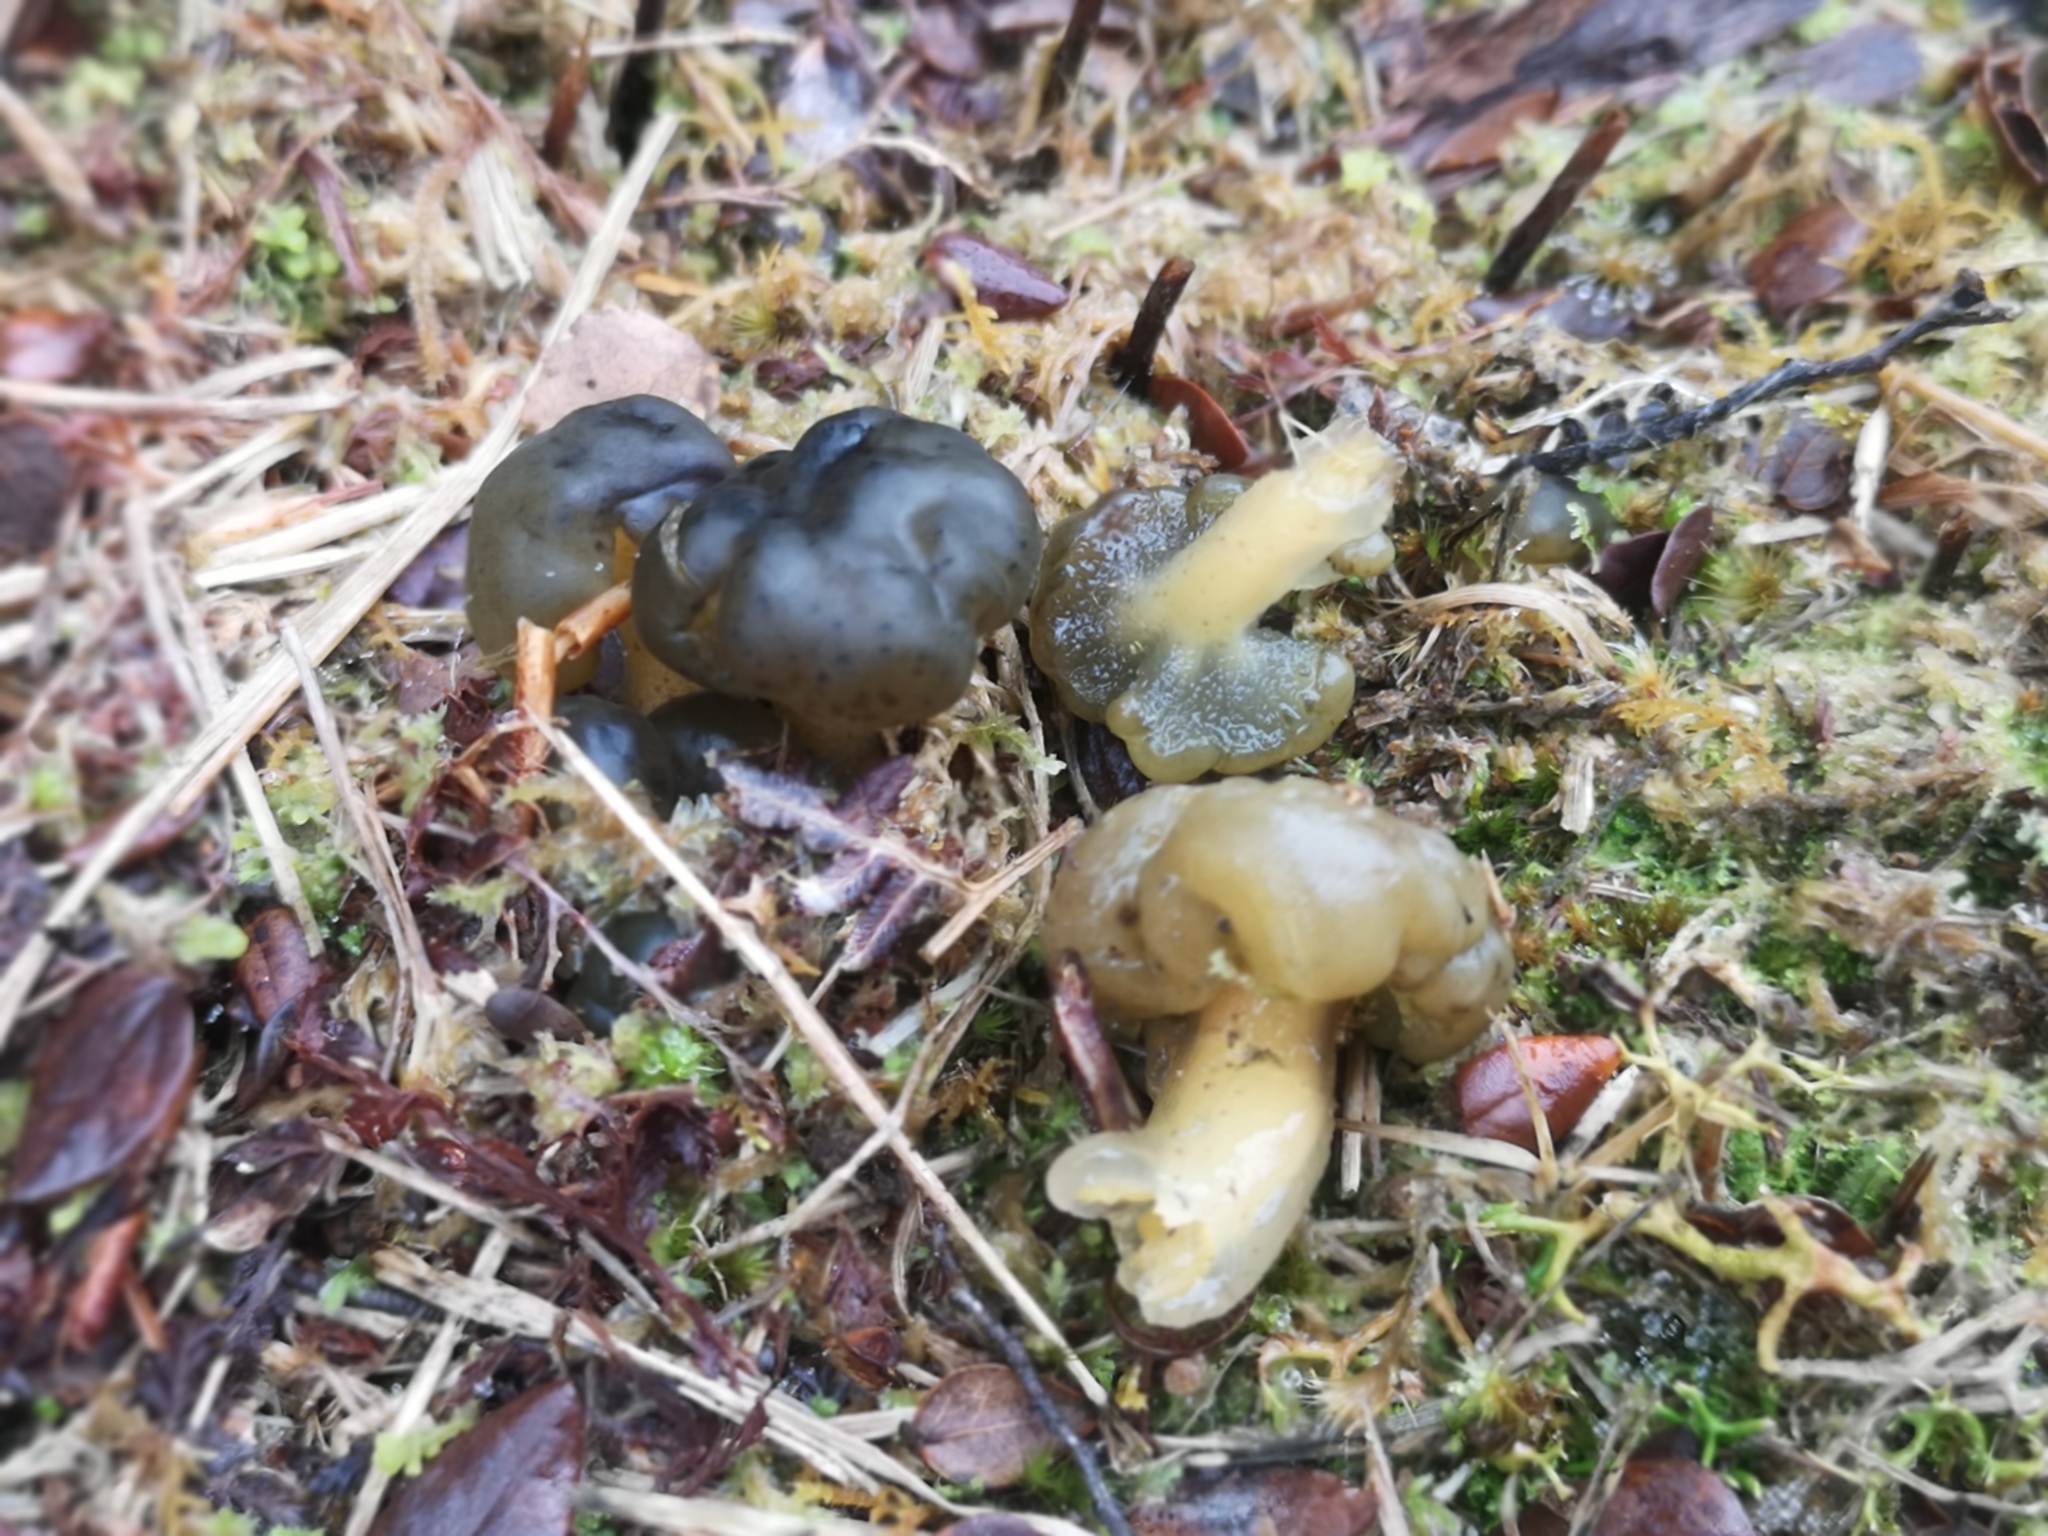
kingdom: Fungi
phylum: Ascomycota
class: Leotiomycetes
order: Leotiales
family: Leotiaceae
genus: Leotia
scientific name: Leotia lubrica
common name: Jellybaby
